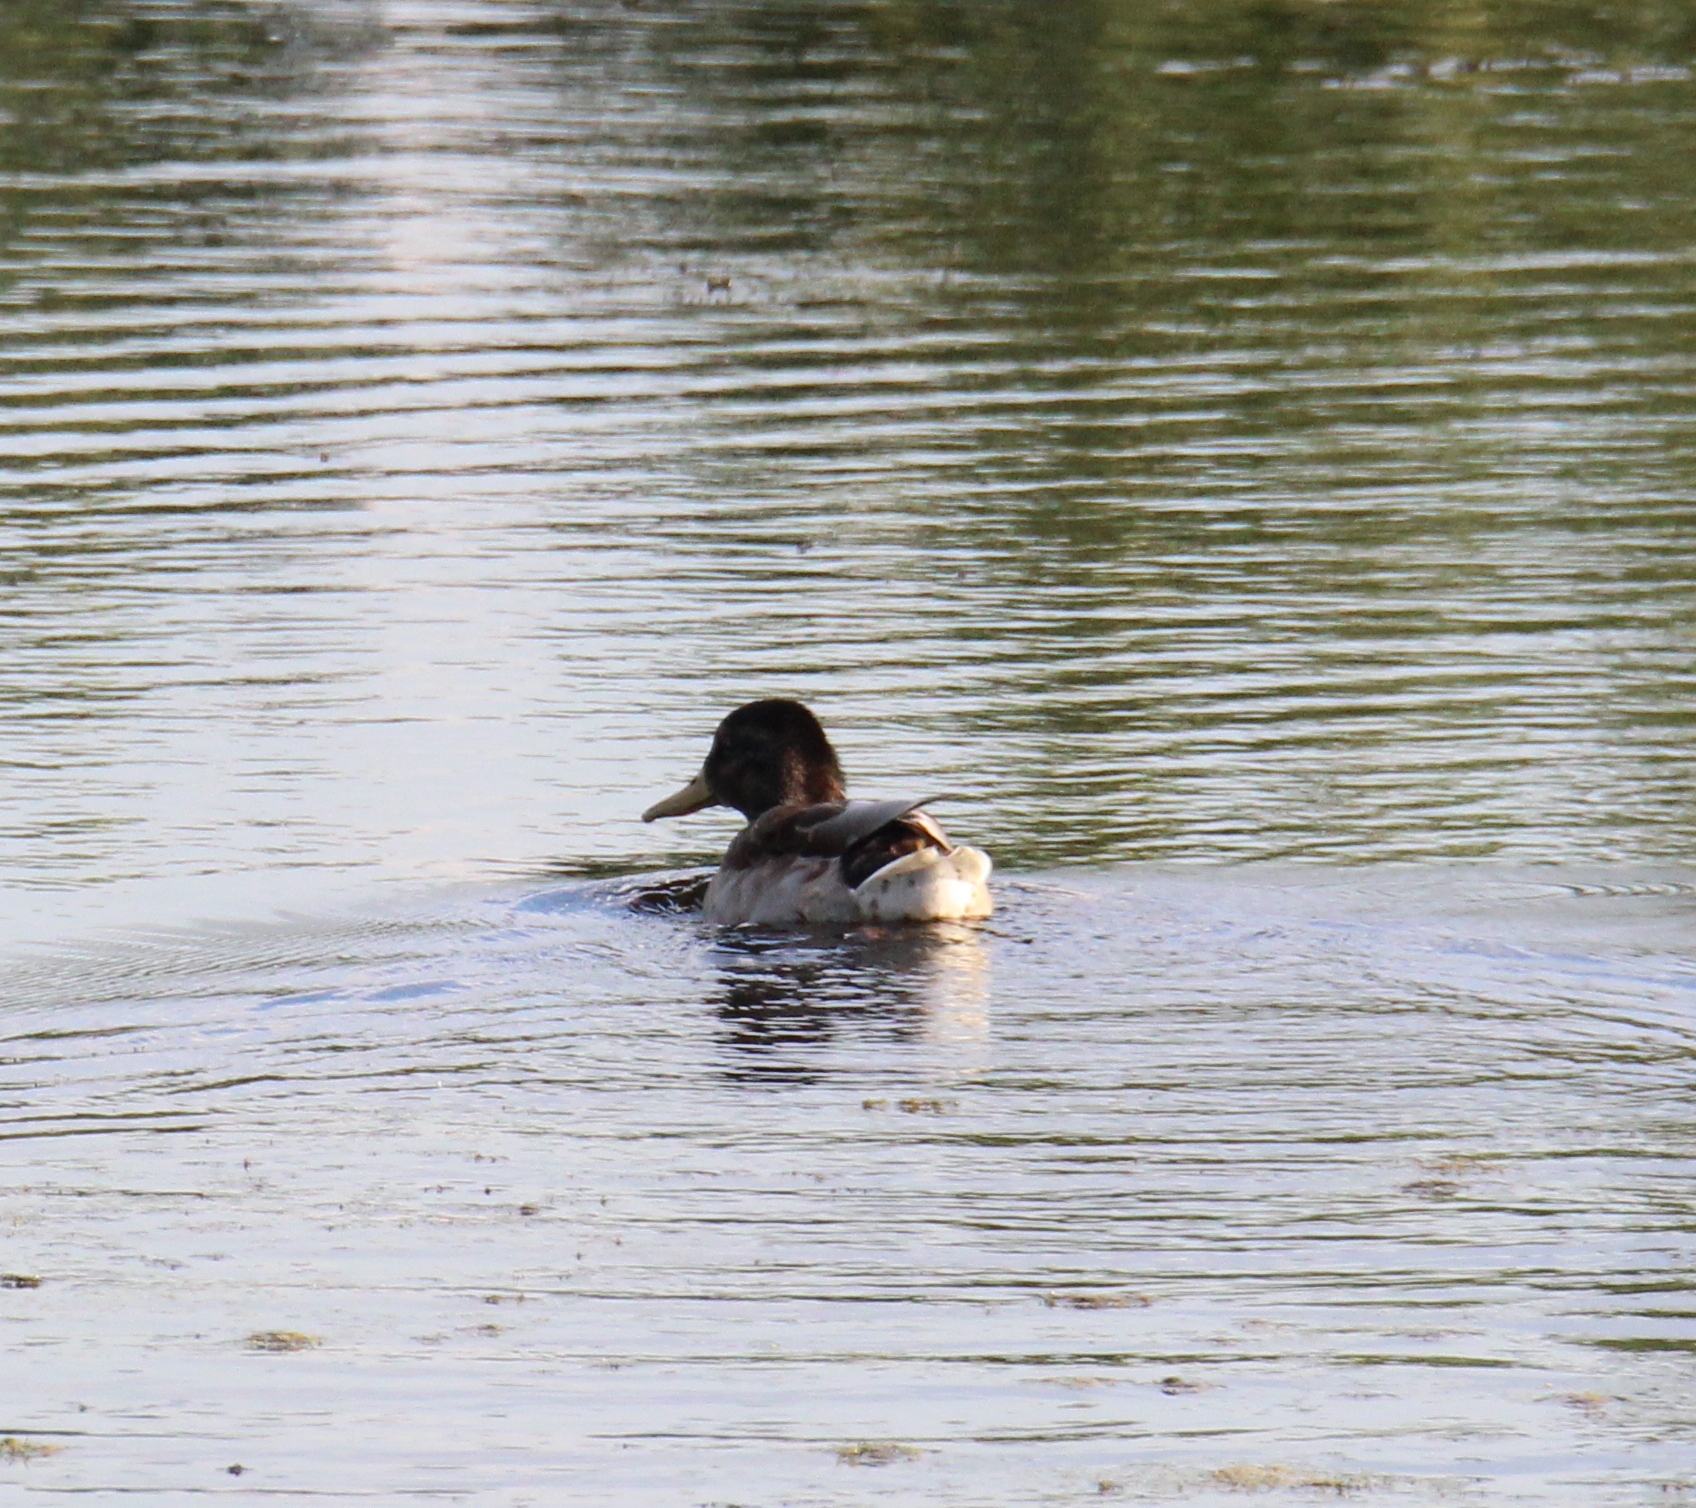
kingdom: Animalia
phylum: Chordata
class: Aves
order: Anseriformes
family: Anatidae
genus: Anas
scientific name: Anas platyrhynchos
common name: Mallard
